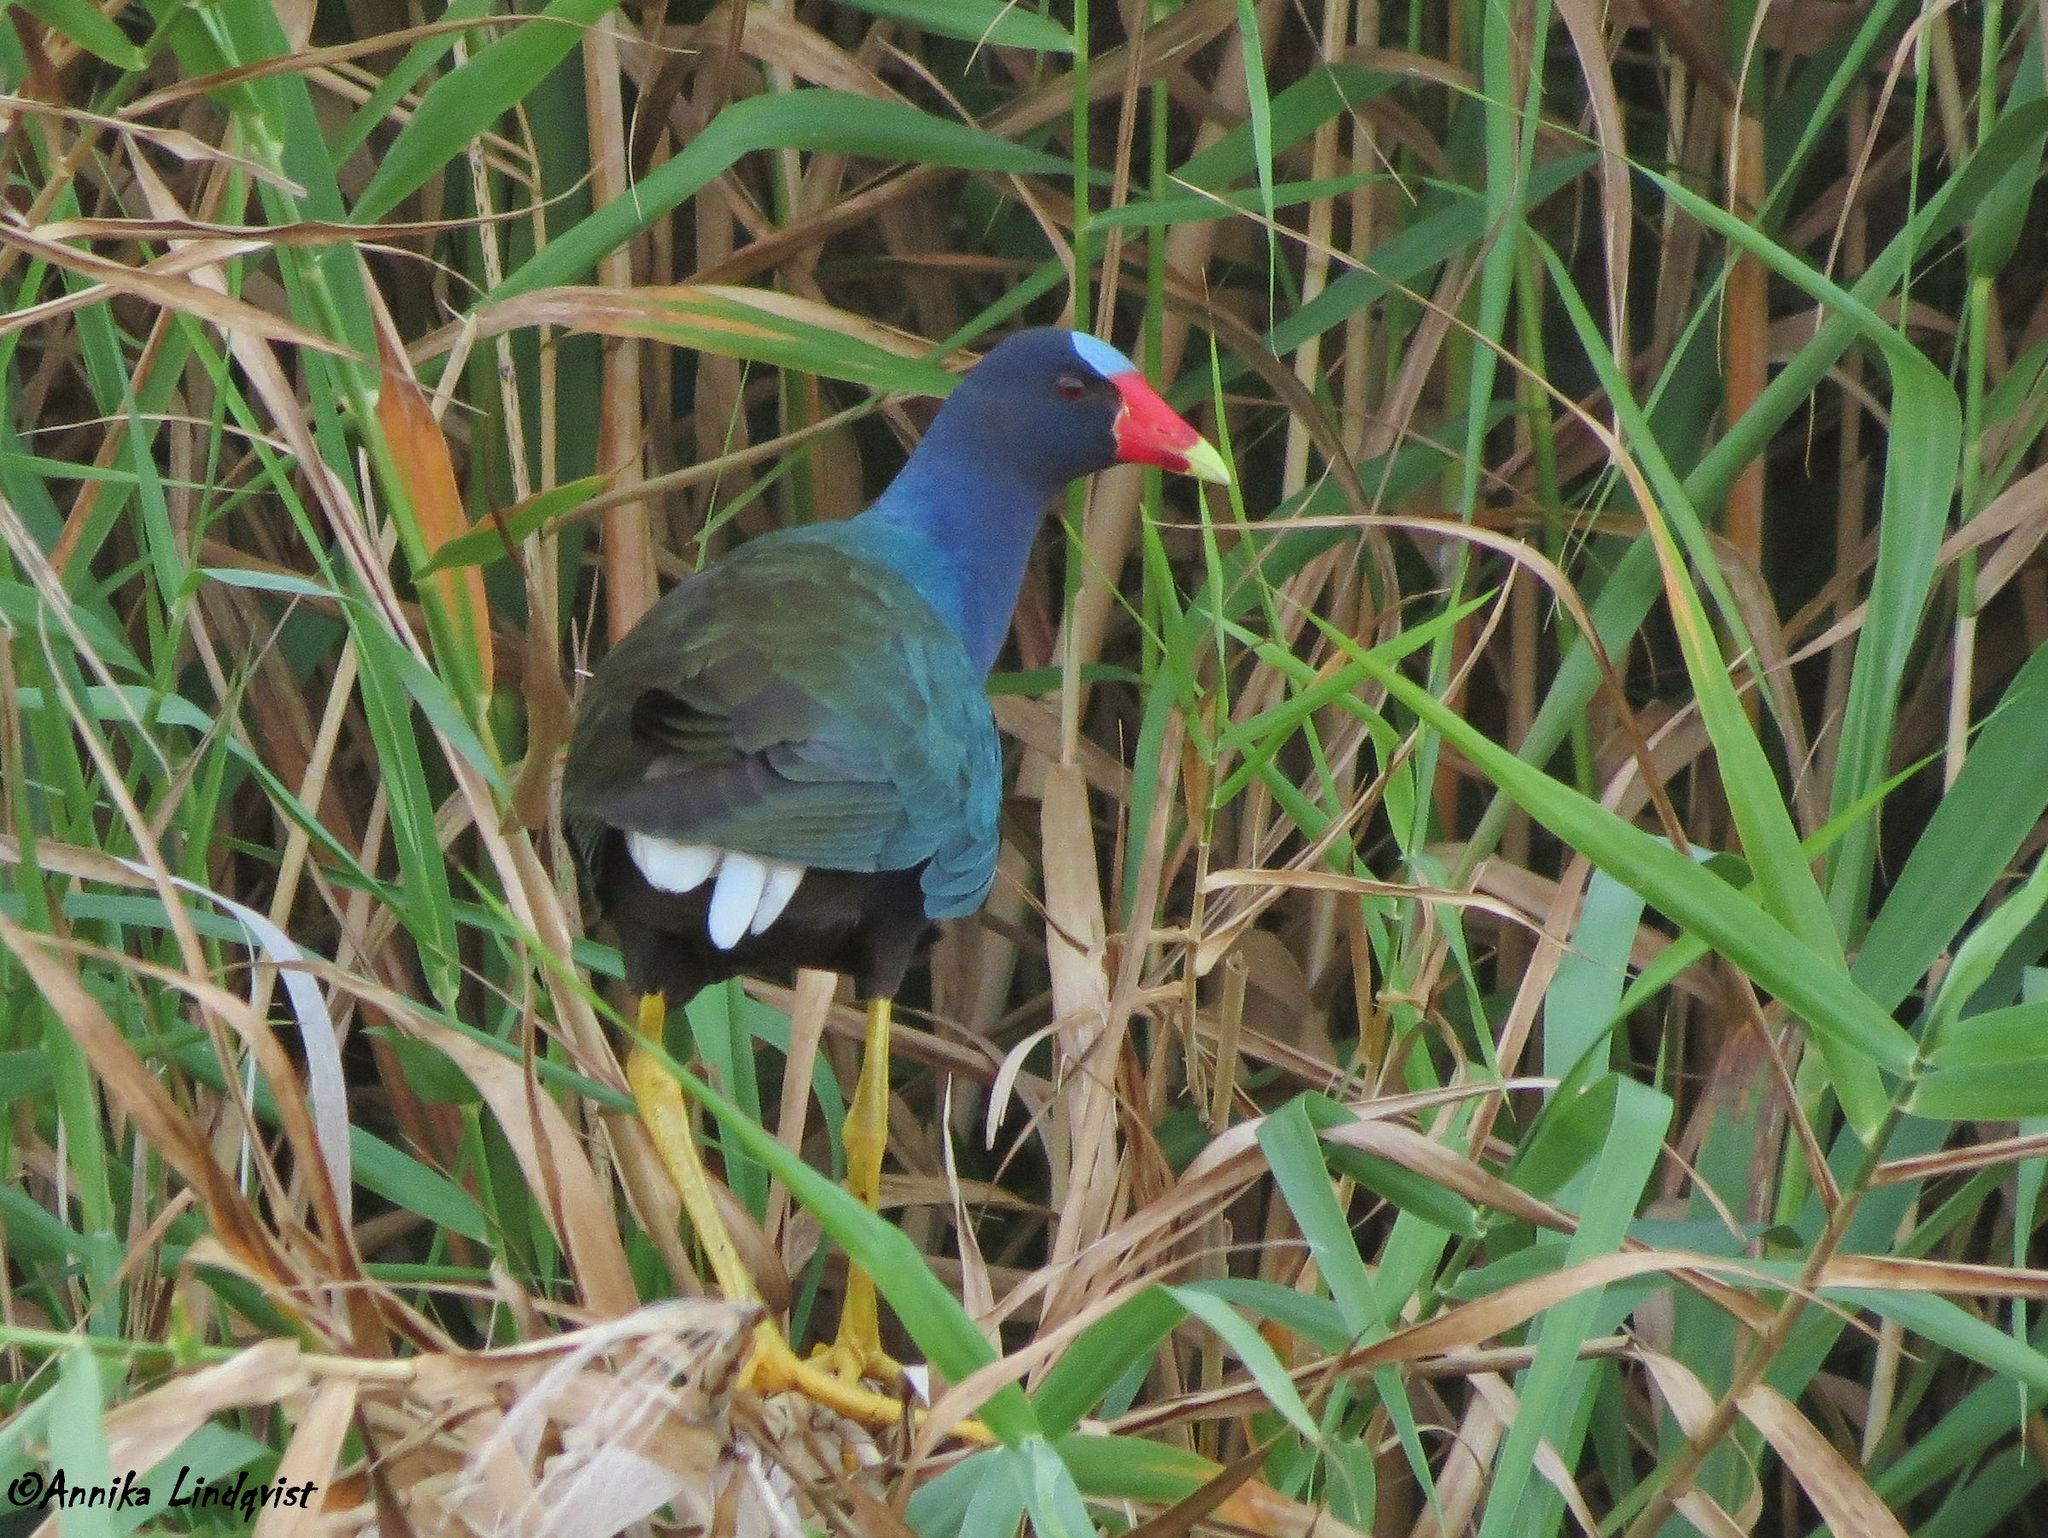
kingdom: Animalia
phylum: Chordata
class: Aves
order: Gruiformes
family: Rallidae
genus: Porphyrio
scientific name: Porphyrio martinica
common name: Purple gallinule
